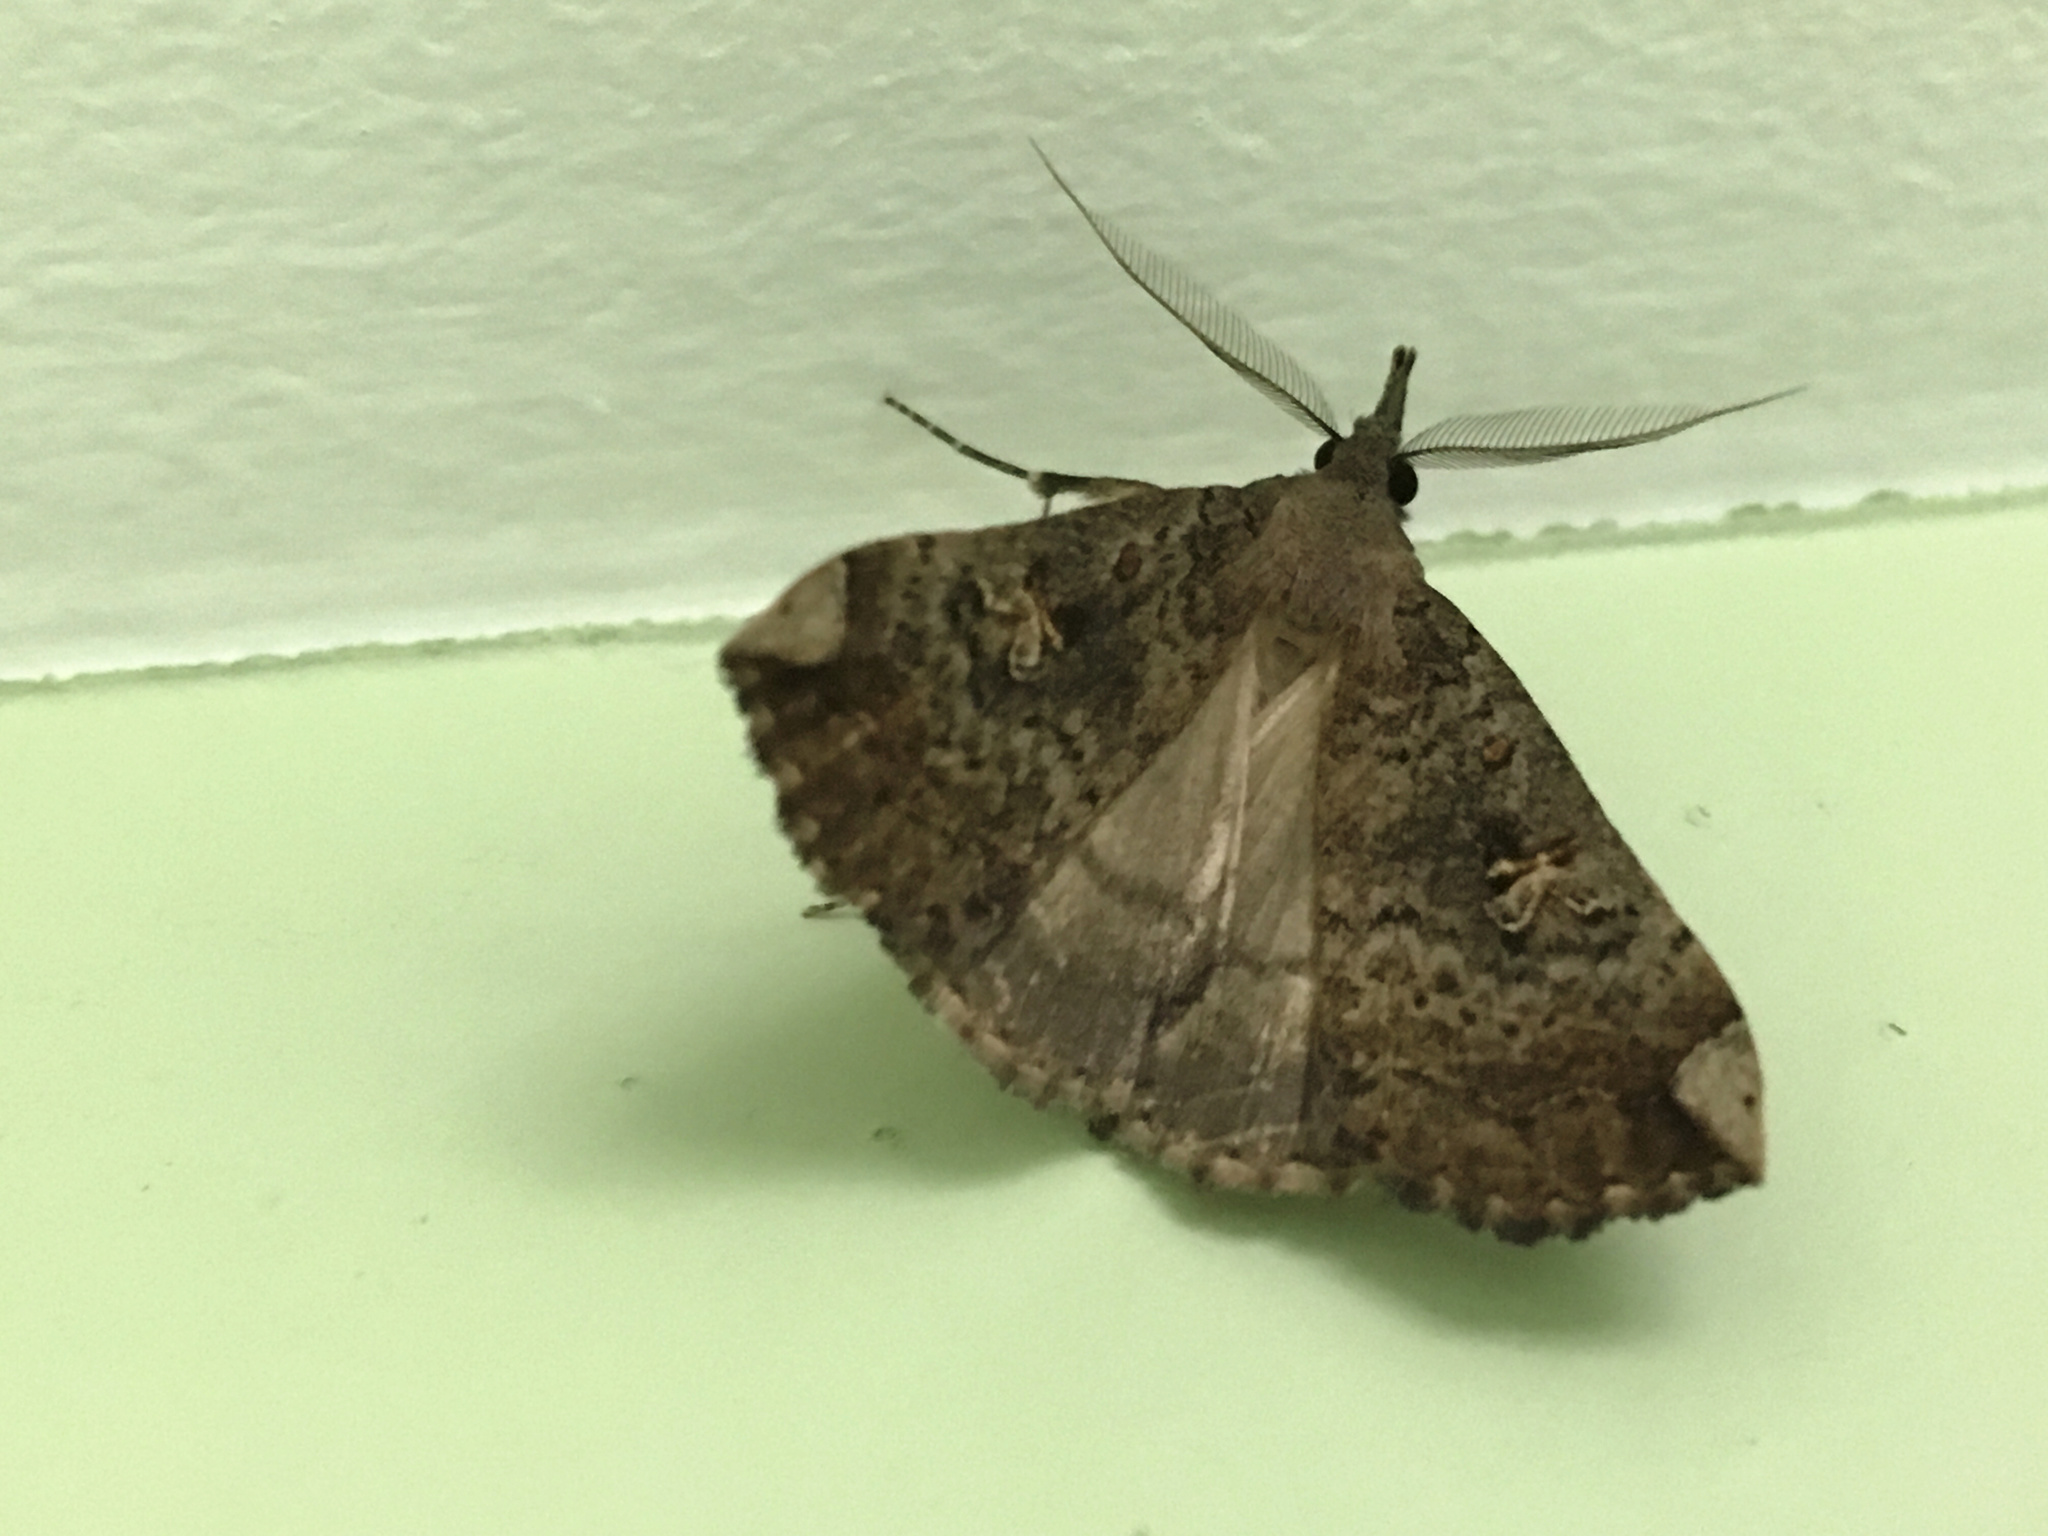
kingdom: Animalia
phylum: Arthropoda
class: Insecta
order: Lepidoptera
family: Erebidae
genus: Rhapsa
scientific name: Rhapsa scotosialis
